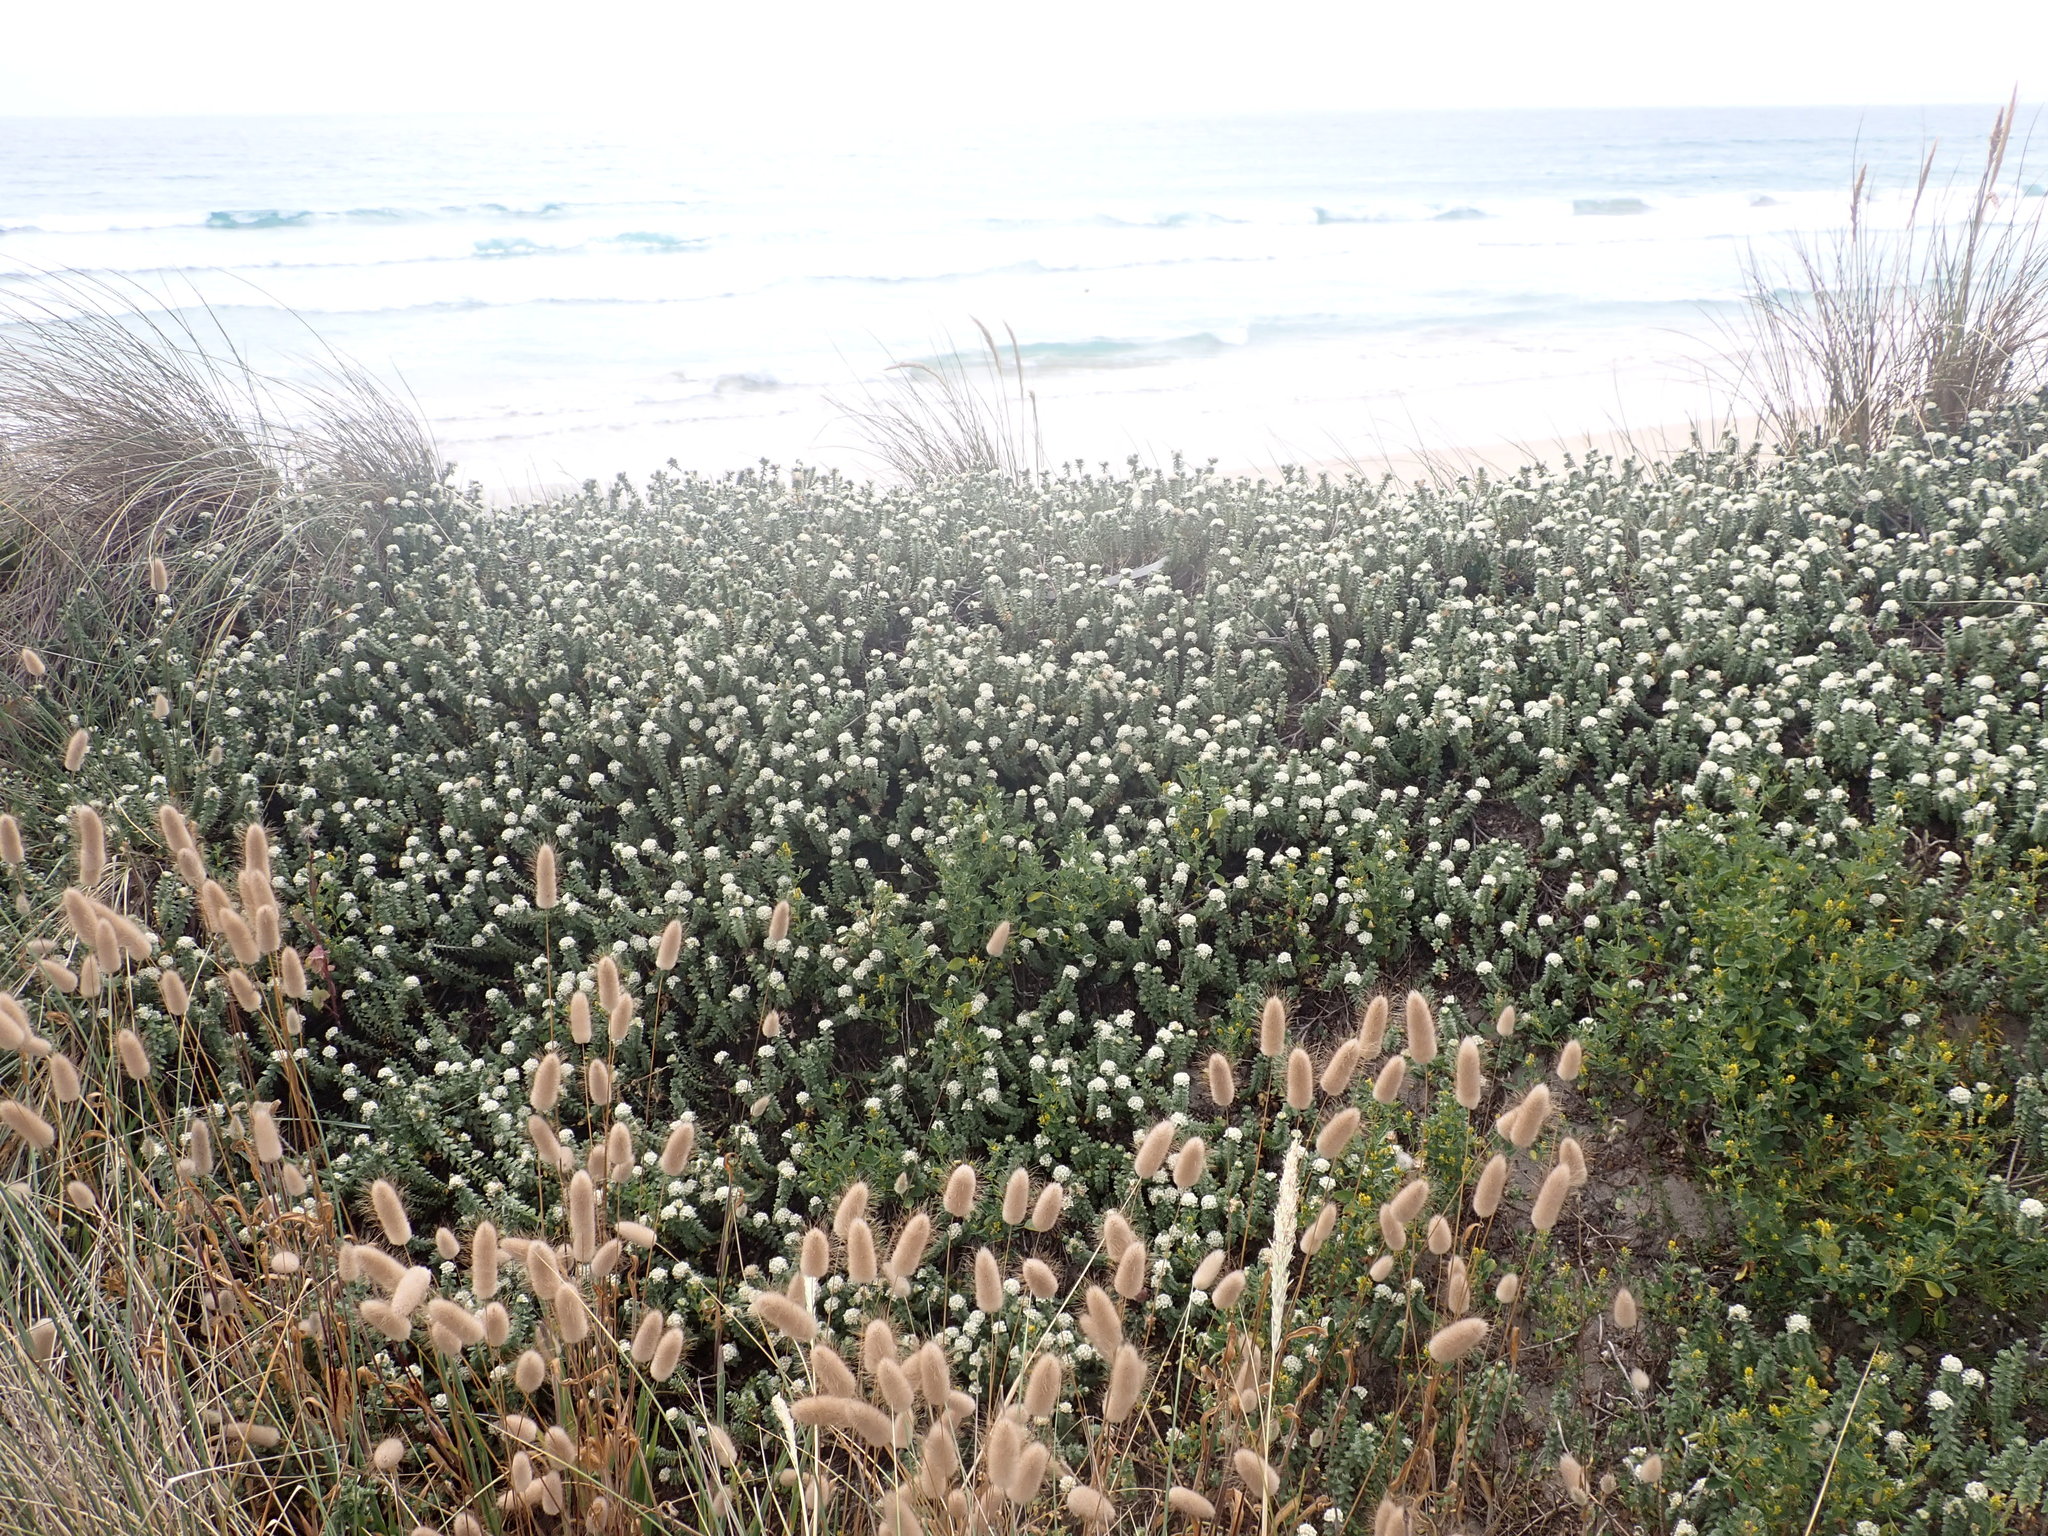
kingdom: Plantae
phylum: Tracheophyta
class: Magnoliopsida
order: Malvales
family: Thymelaeaceae
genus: Pimelea
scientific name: Pimelea villosa
